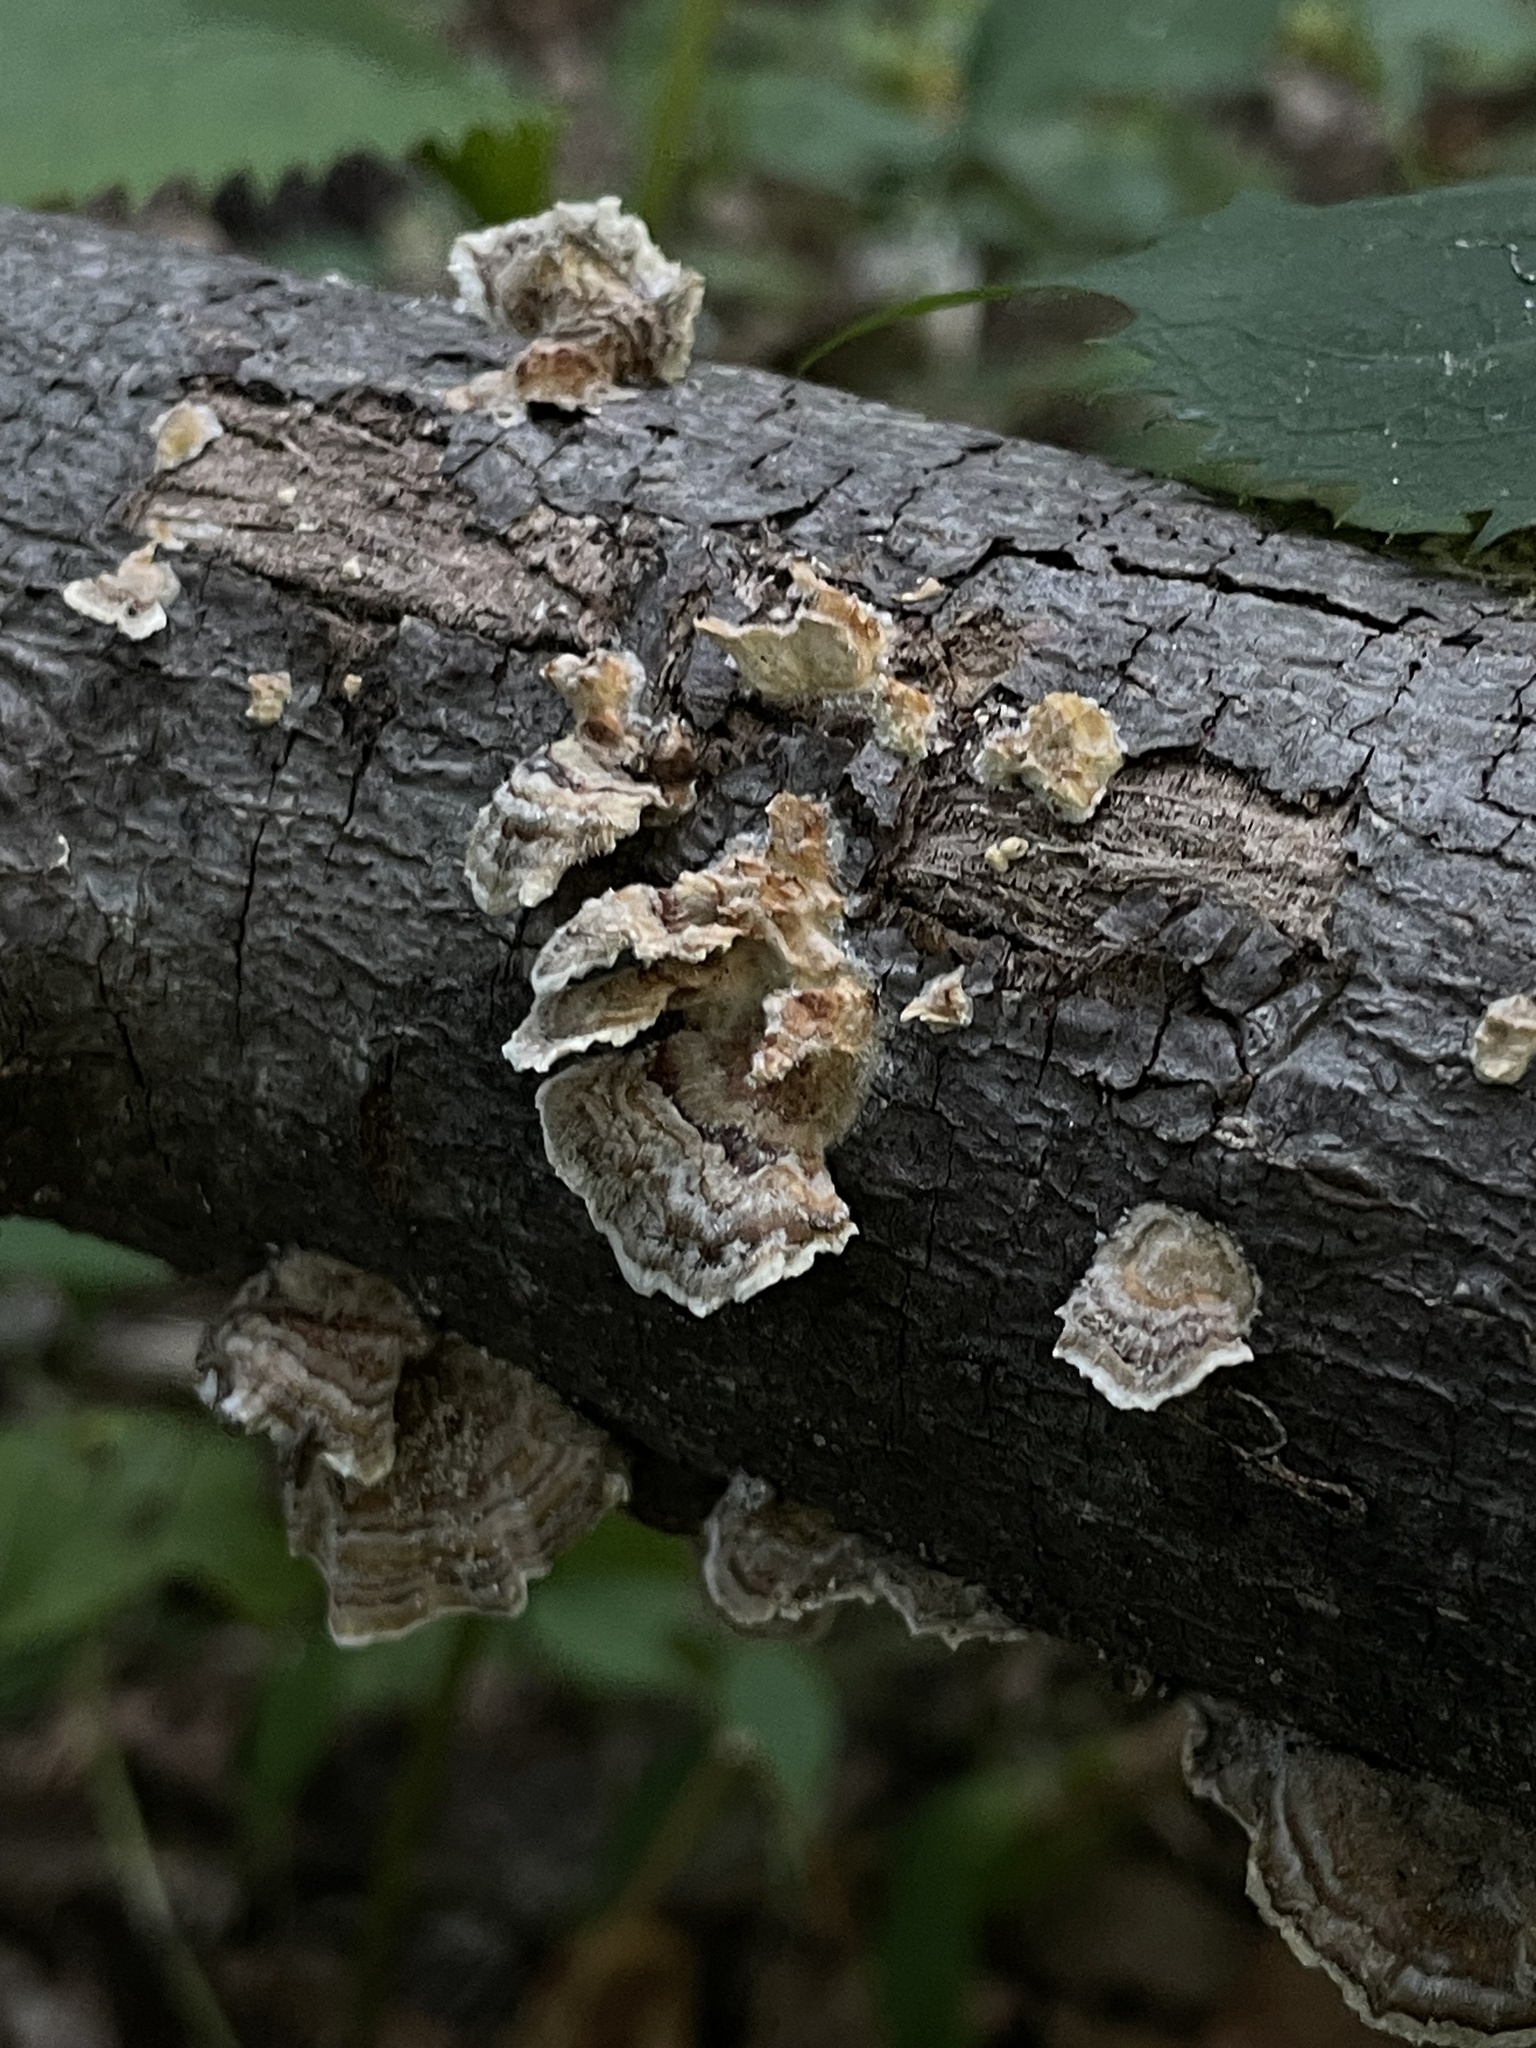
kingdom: Fungi
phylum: Basidiomycota
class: Agaricomycetes
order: Polyporales
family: Polyporaceae
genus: Trametes
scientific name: Trametes versicolor
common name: Turkeytail
